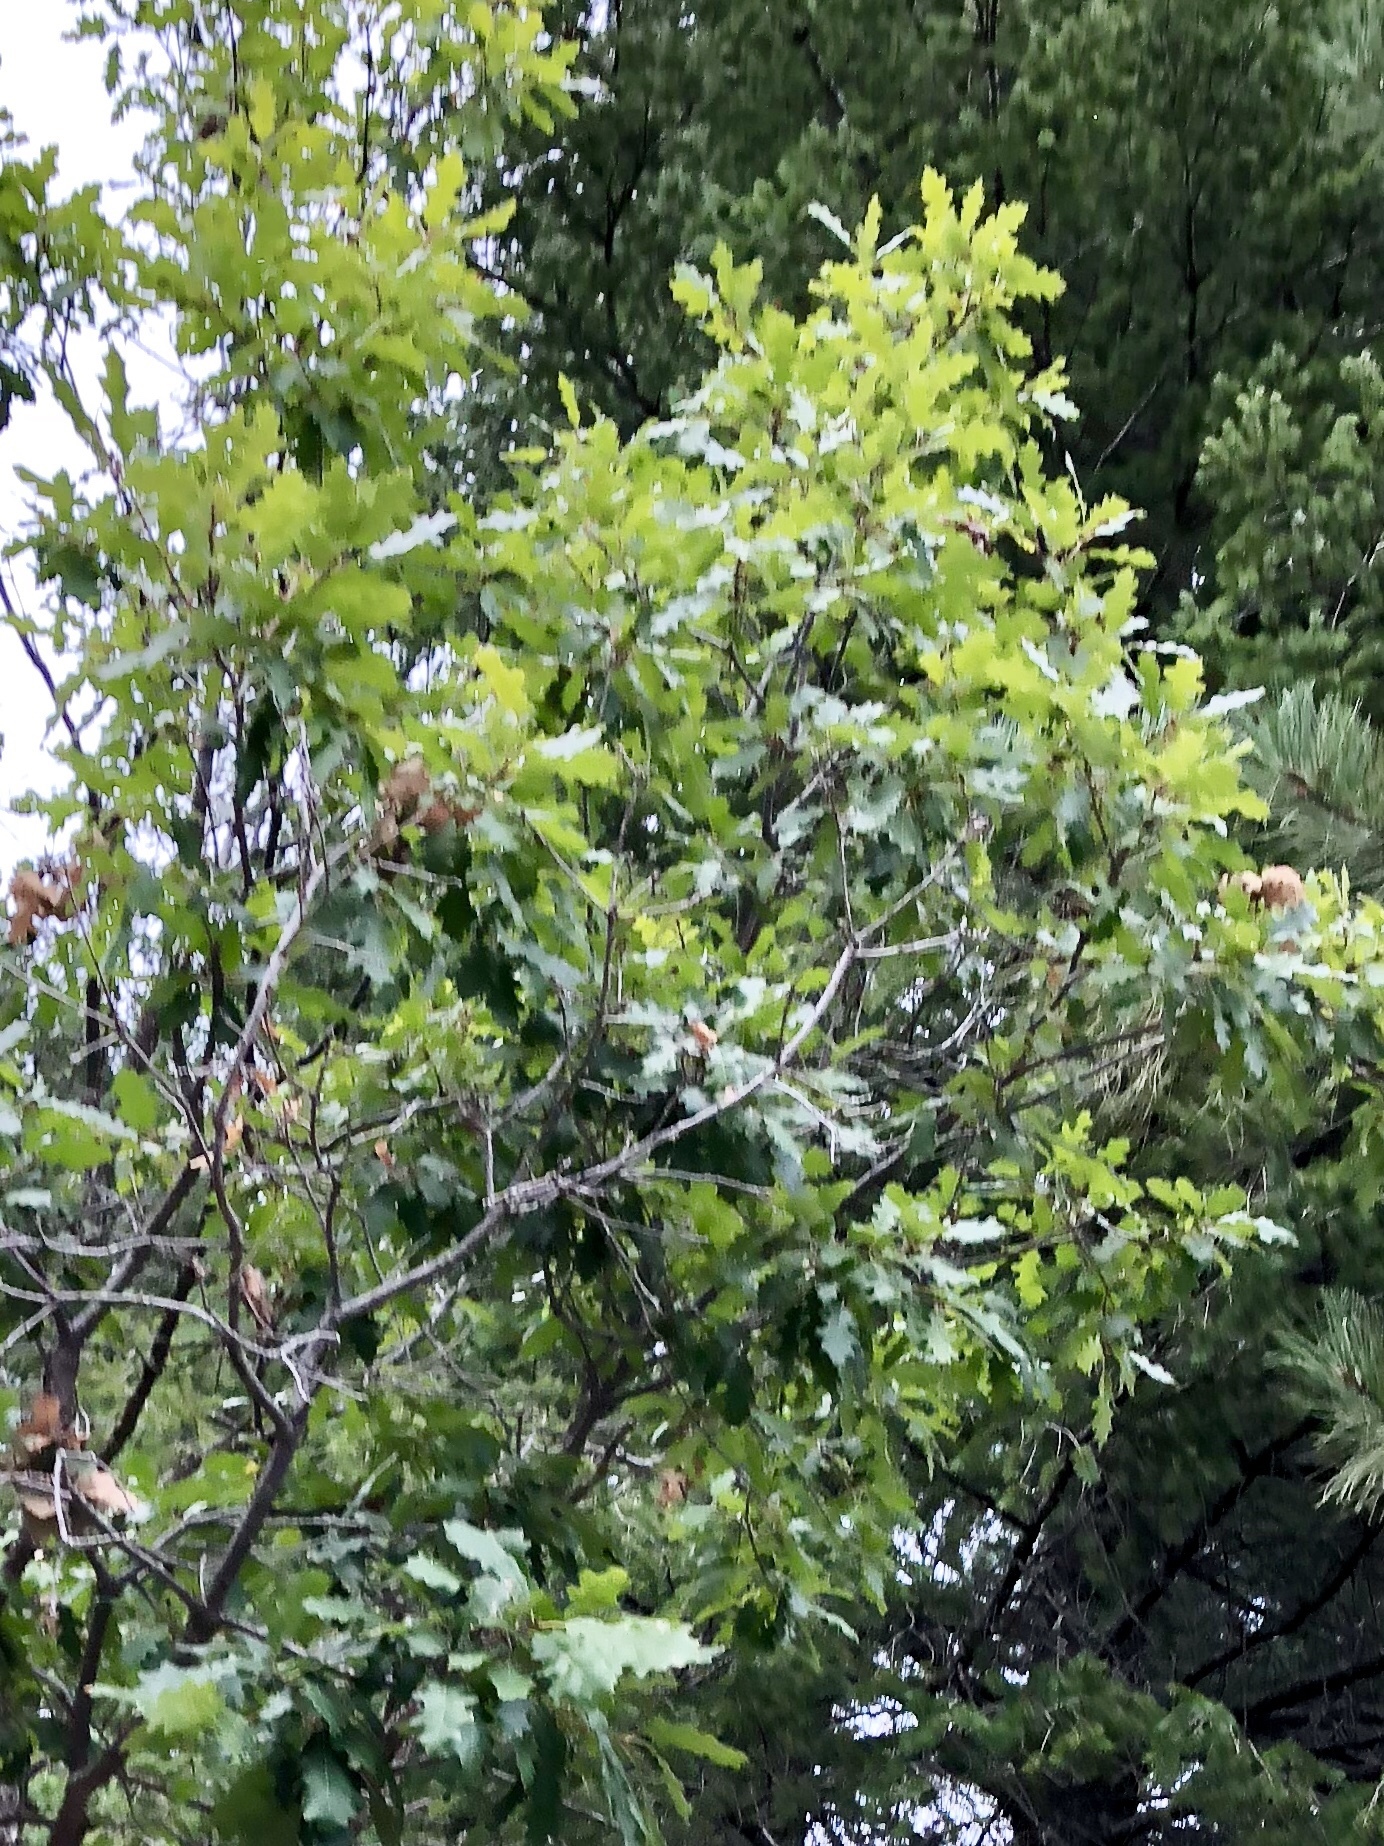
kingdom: Plantae
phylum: Tracheophyta
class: Magnoliopsida
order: Fagales
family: Fagaceae
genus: Quercus
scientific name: Quercus gambelii
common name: Gambel oak
